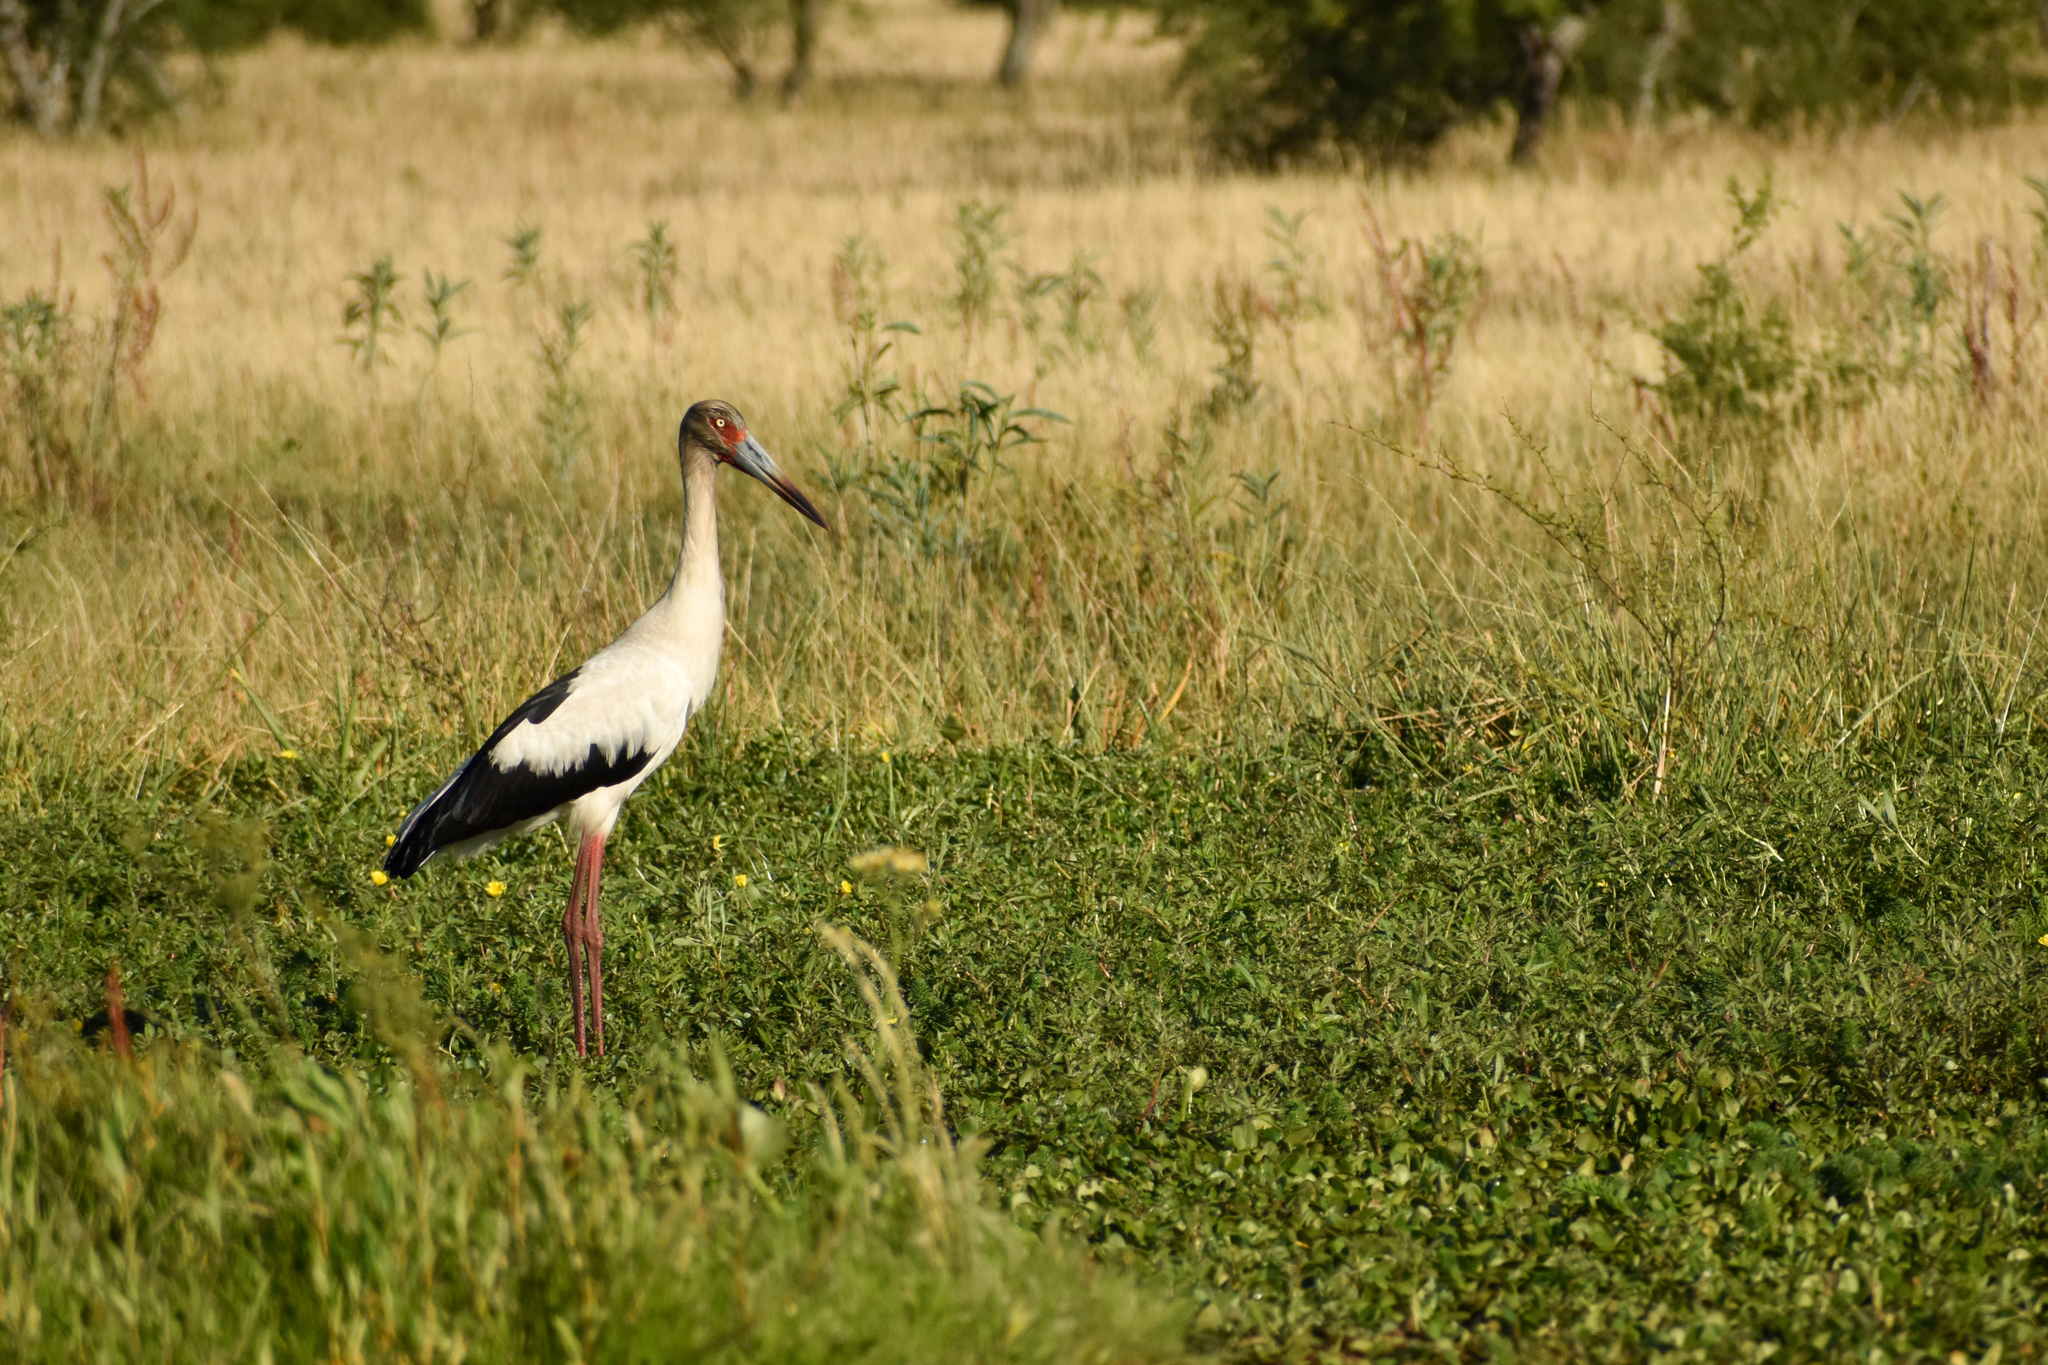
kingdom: Animalia
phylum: Chordata
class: Aves
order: Ciconiiformes
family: Ciconiidae
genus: Ciconia
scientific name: Ciconia maguari
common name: Maguari stork
